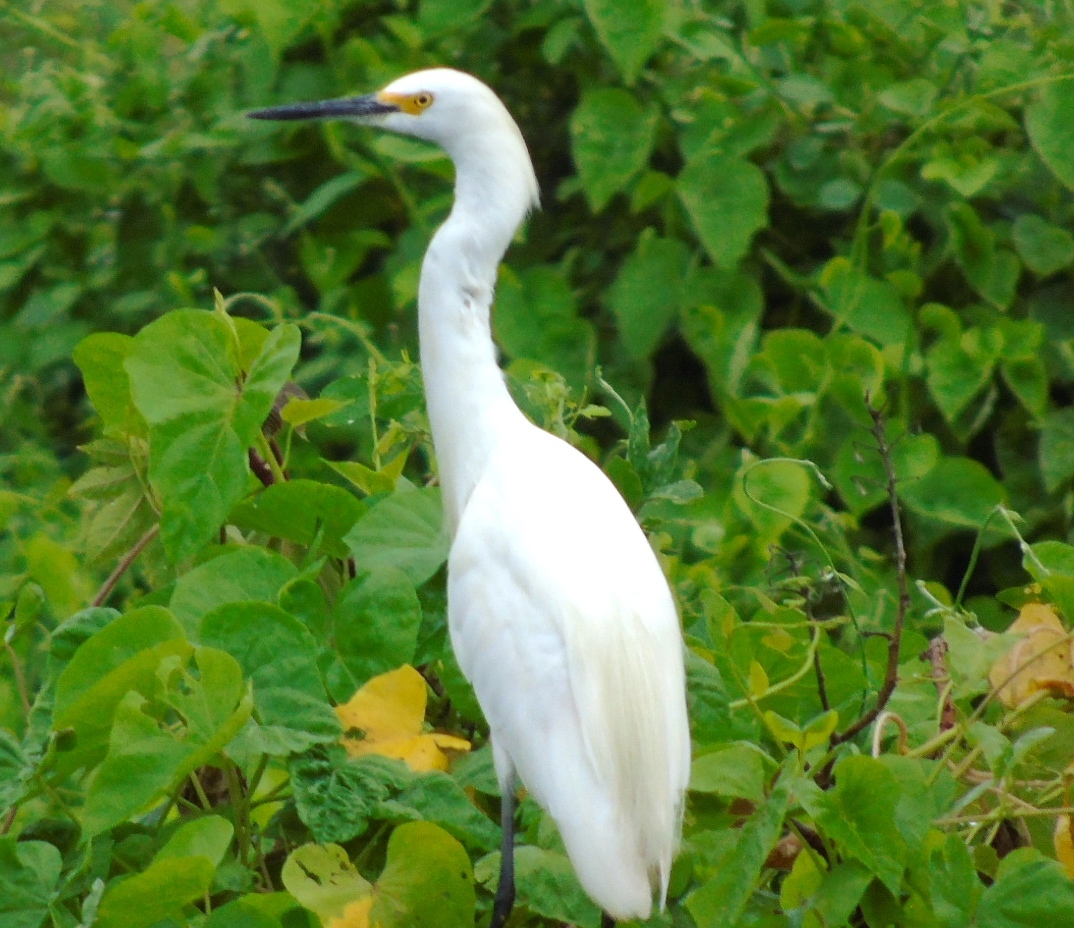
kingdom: Animalia
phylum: Chordata
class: Aves
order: Pelecaniformes
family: Ardeidae
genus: Egretta
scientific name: Egretta thula
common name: Snowy egret
